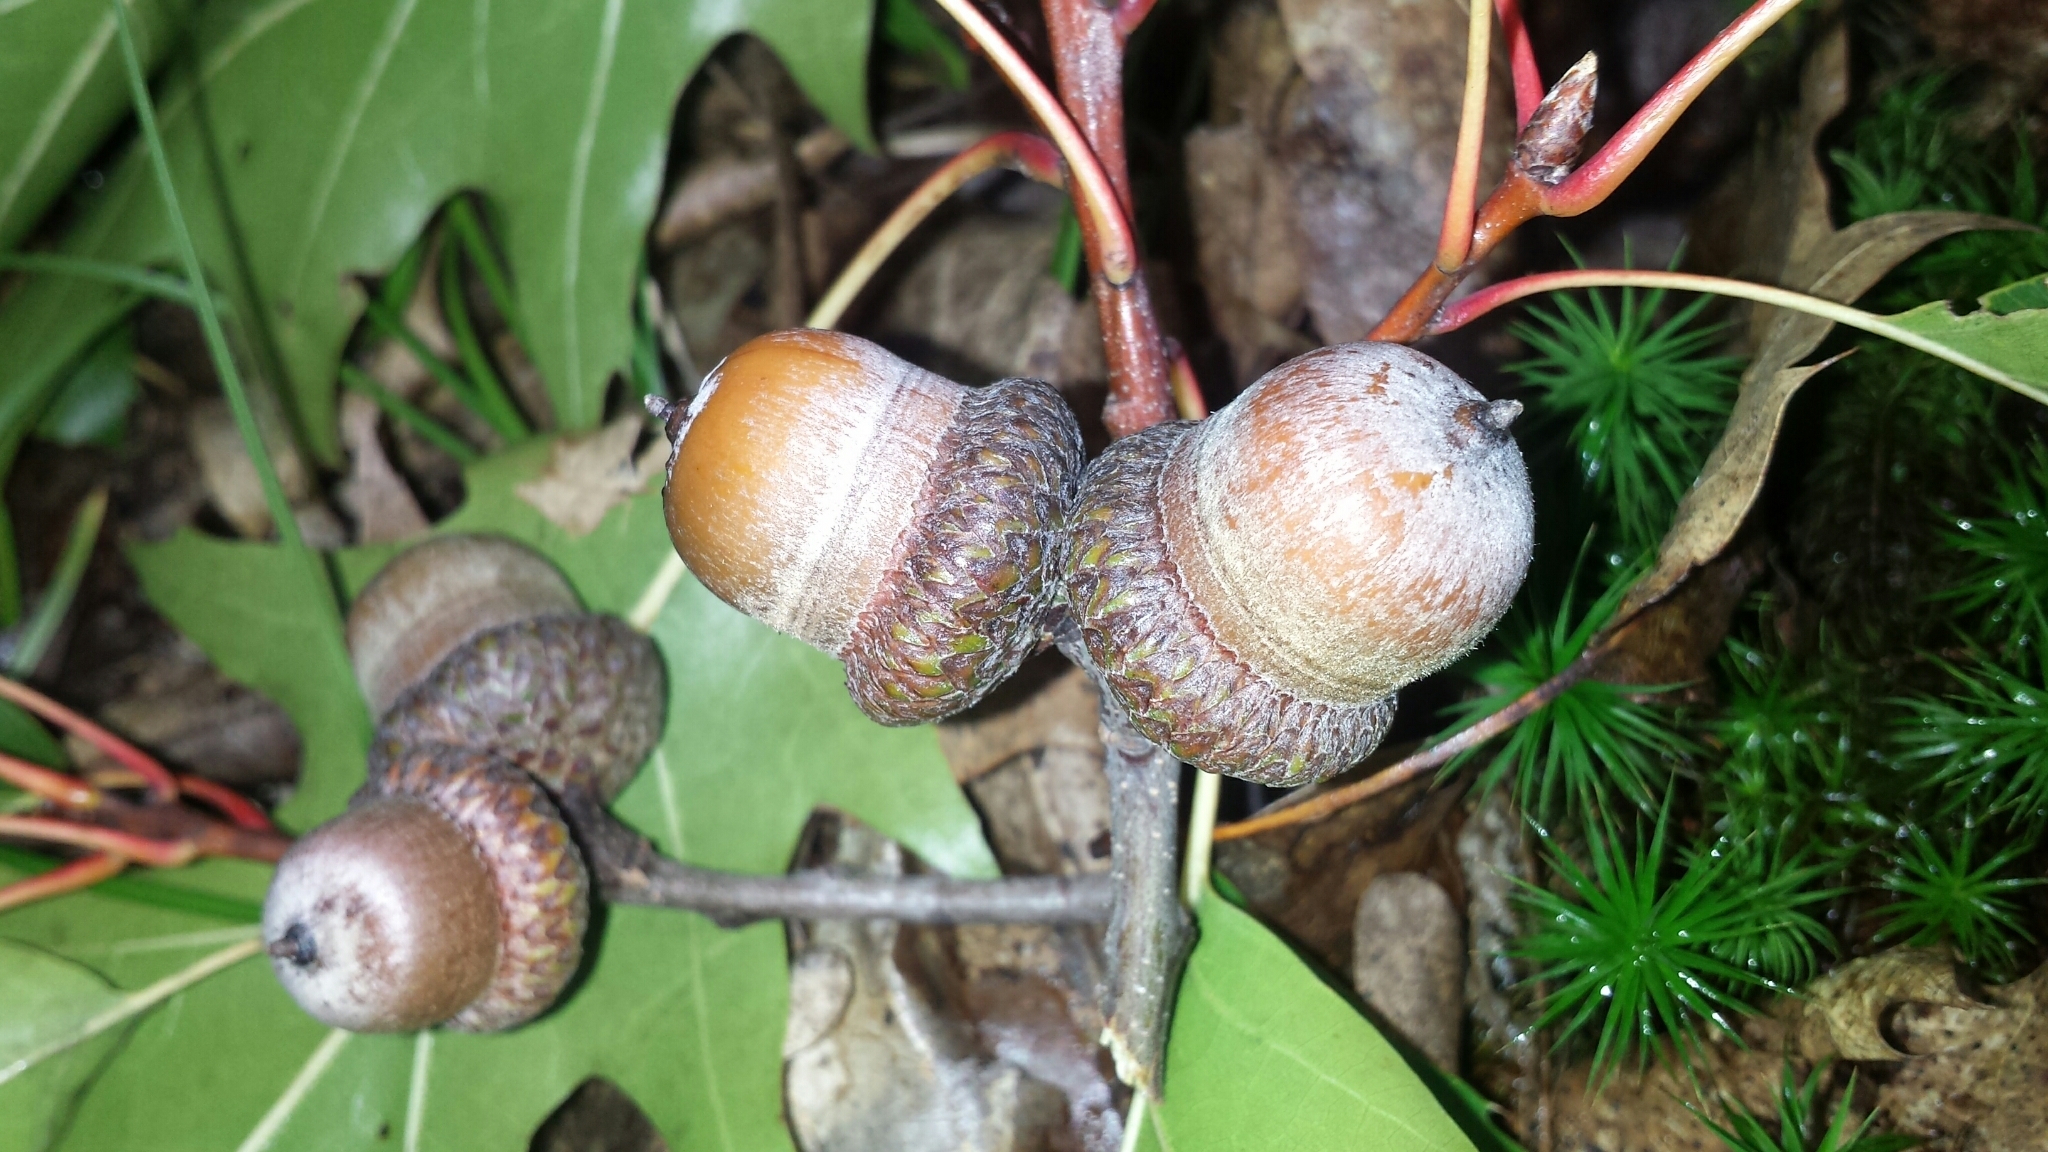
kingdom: Plantae
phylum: Tracheophyta
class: Magnoliopsida
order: Fagales
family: Fagaceae
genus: Quercus
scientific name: Quercus rubra
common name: Red oak
